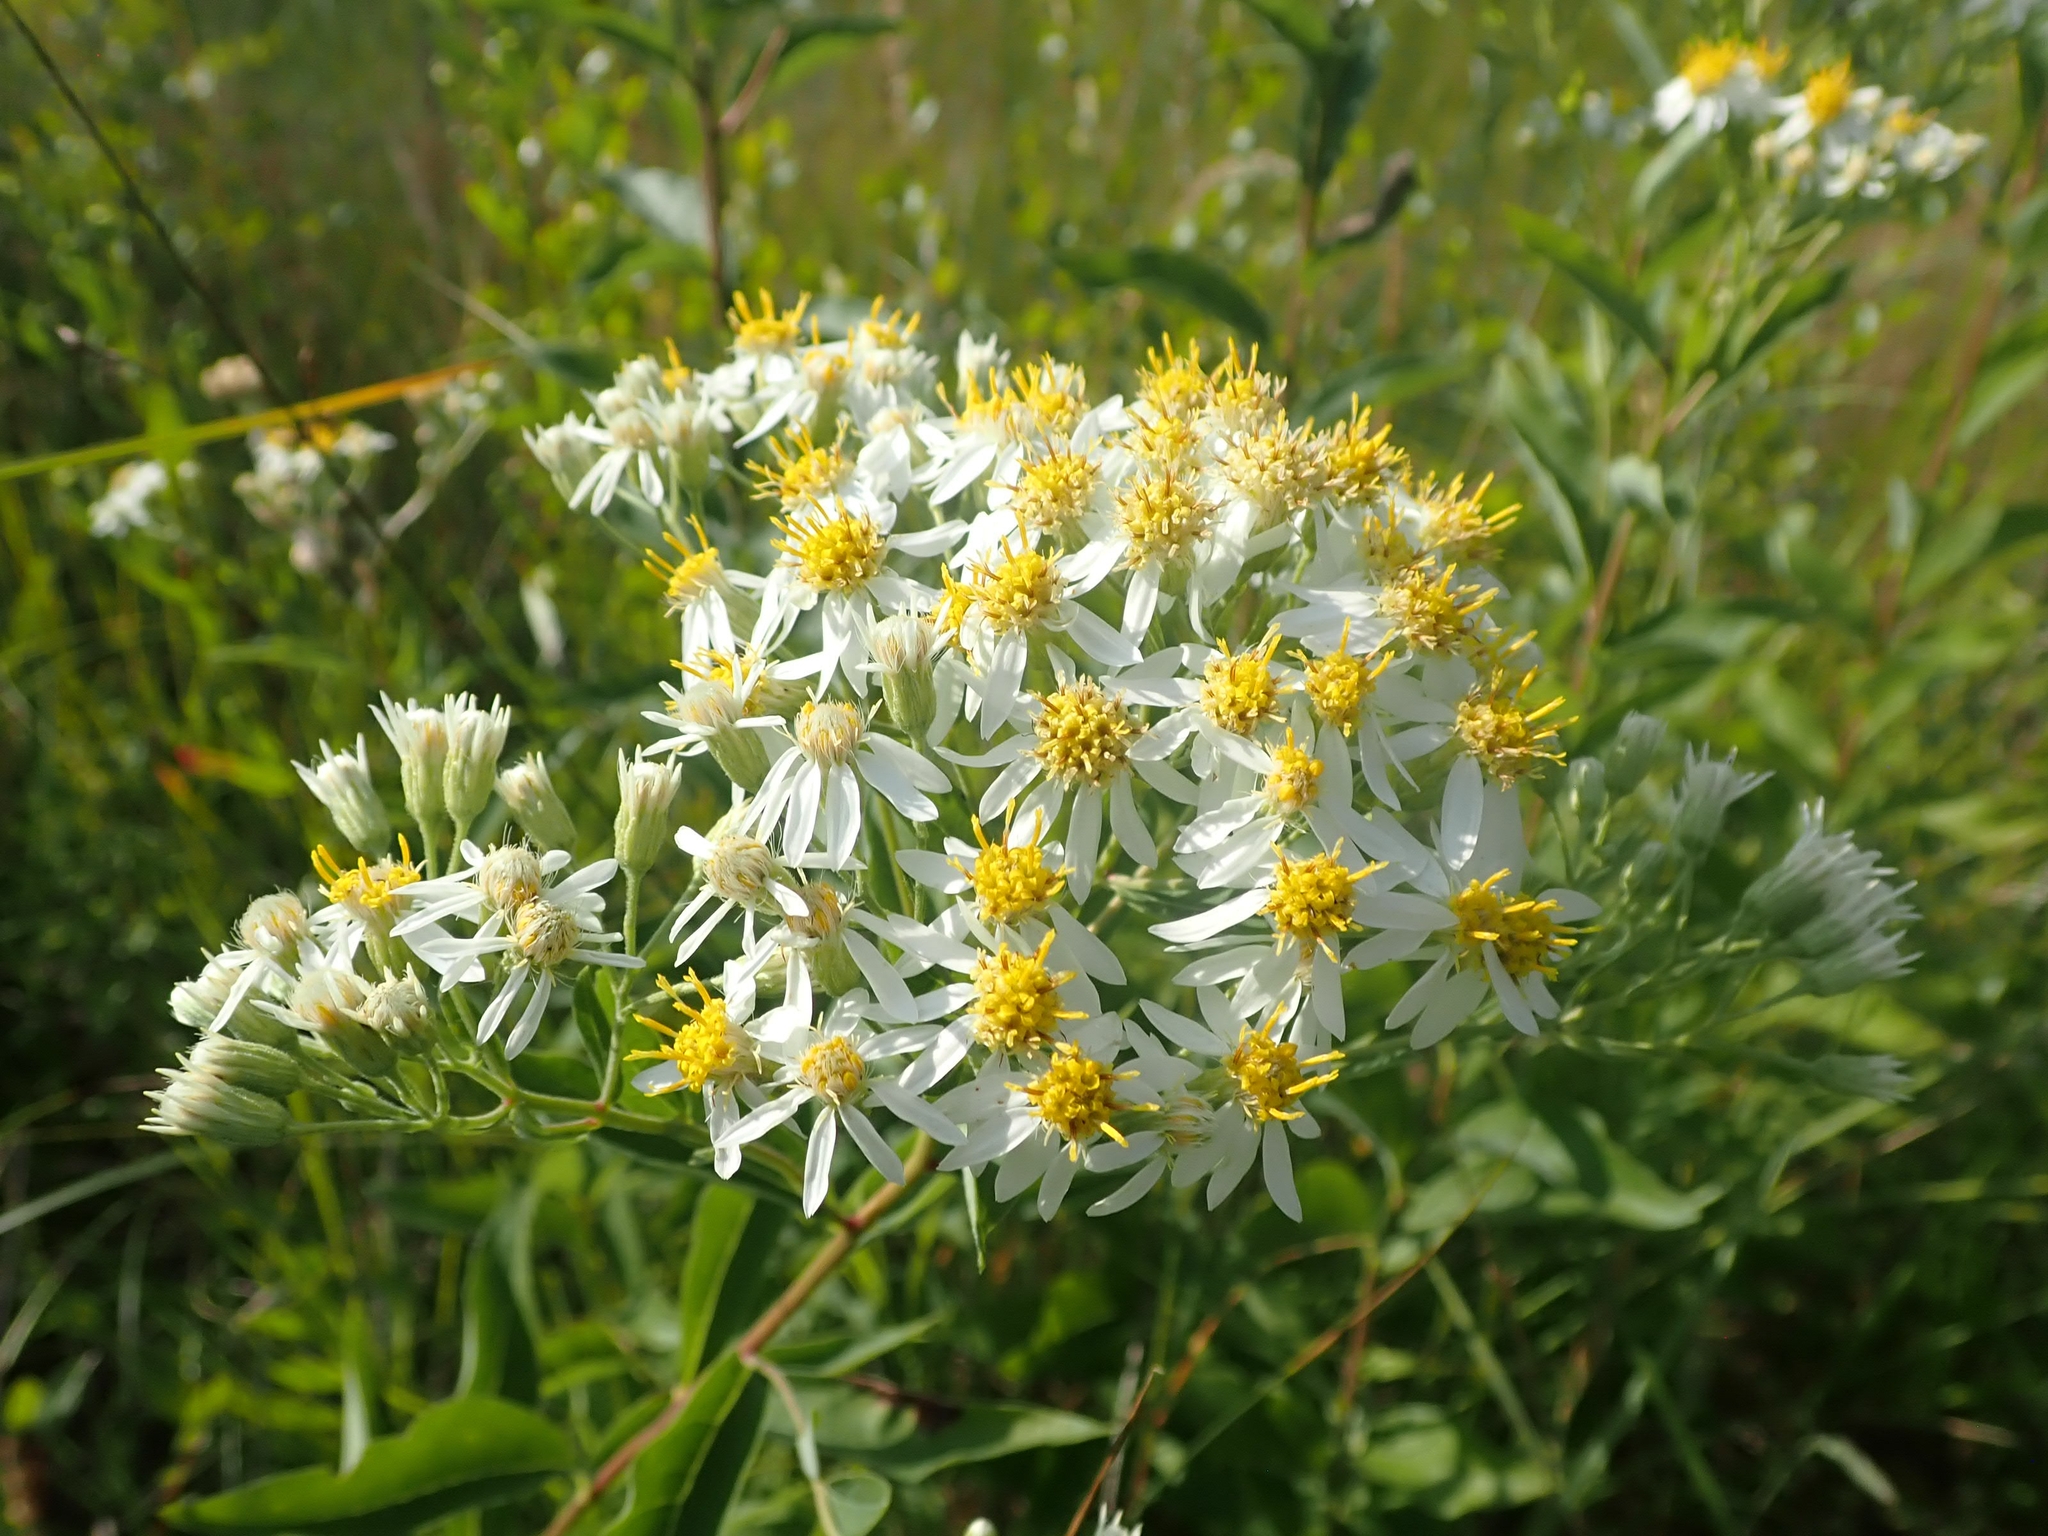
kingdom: Plantae
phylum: Tracheophyta
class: Magnoliopsida
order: Asterales
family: Asteraceae
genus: Doellingeria
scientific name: Doellingeria umbellata
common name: Flat-top white aster
